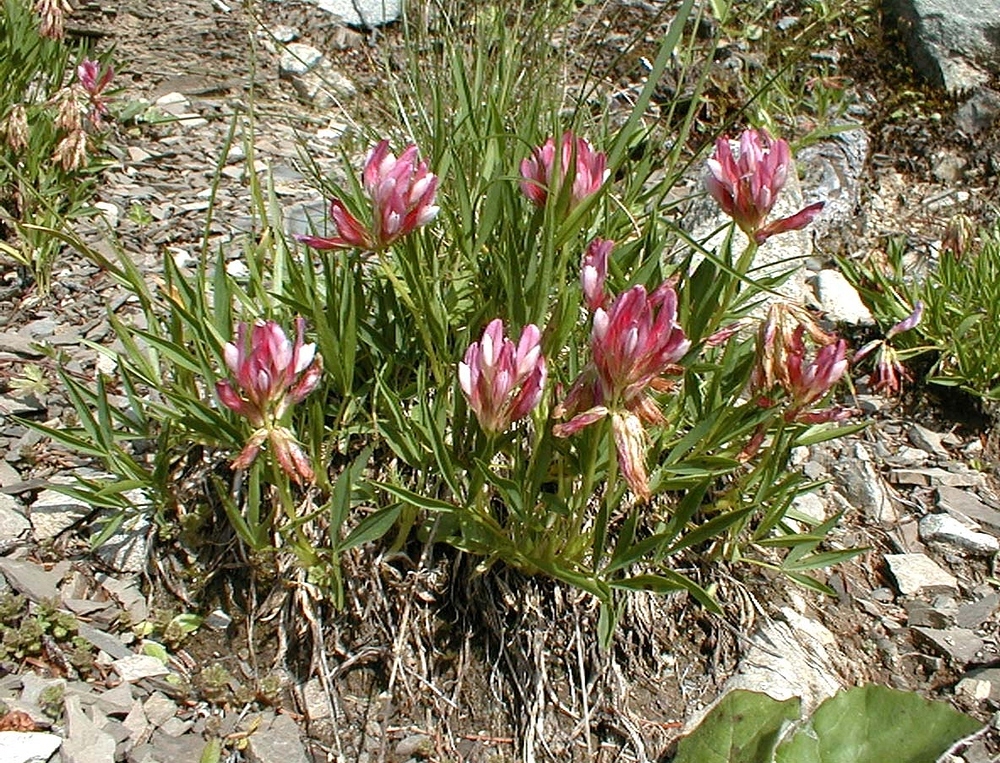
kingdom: Plantae
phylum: Tracheophyta
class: Magnoliopsida
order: Fabales
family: Fabaceae
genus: Trifolium
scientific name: Trifolium alpinum
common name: Alpine clover
